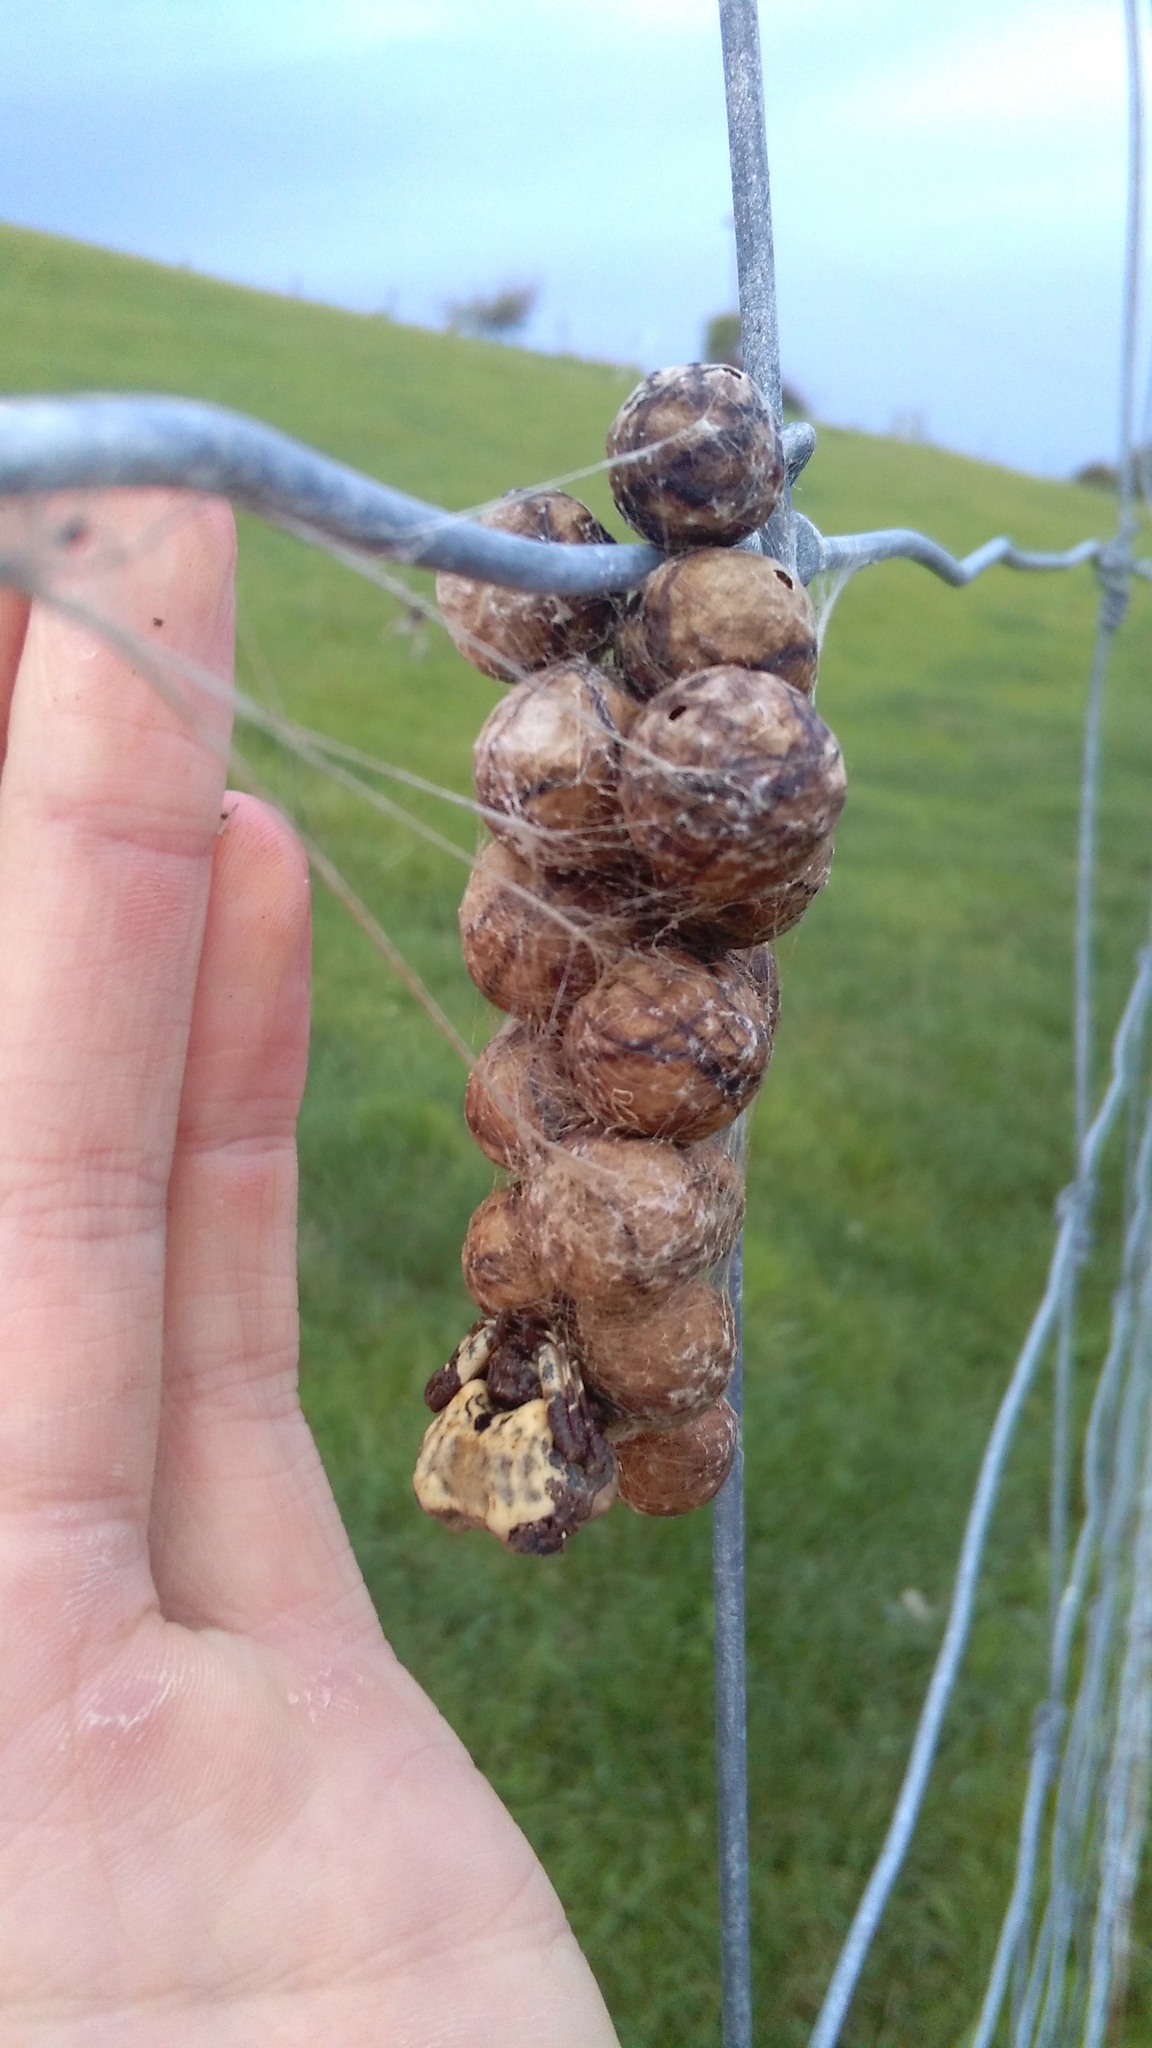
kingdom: Animalia
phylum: Arthropoda
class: Arachnida
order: Araneae
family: Araneidae
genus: Celaenia
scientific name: Celaenia excavata
